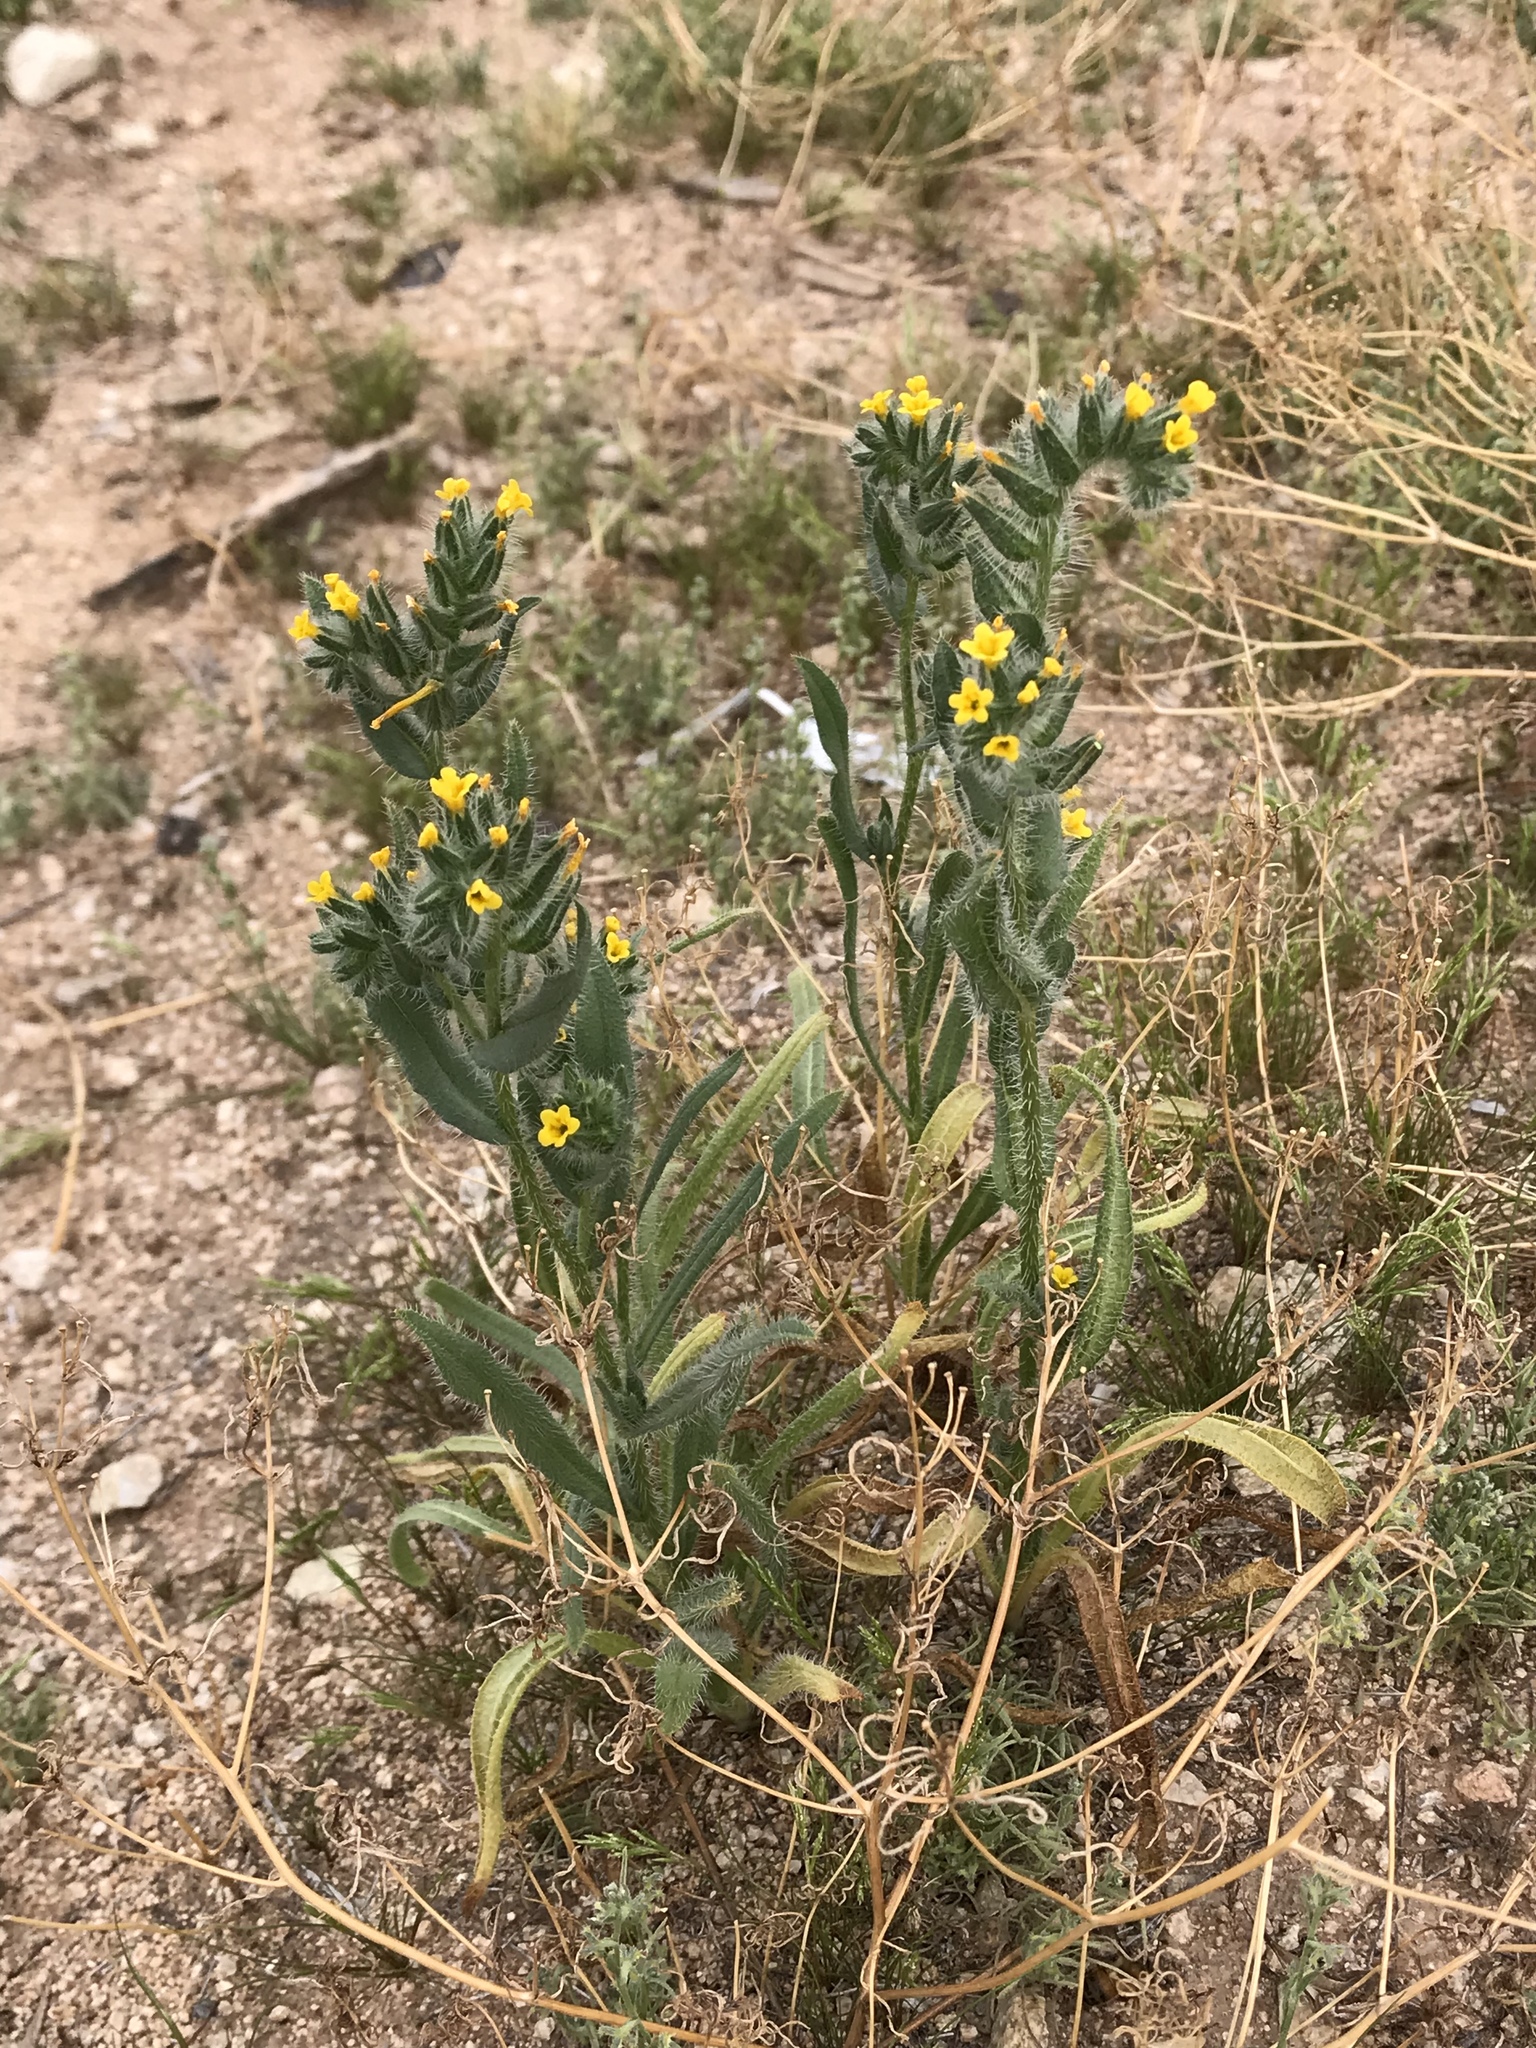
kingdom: Plantae
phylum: Tracheophyta
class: Magnoliopsida
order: Boraginales
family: Boraginaceae
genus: Amsinckia
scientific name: Amsinckia tessellata
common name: Tessellate fiddleneck
